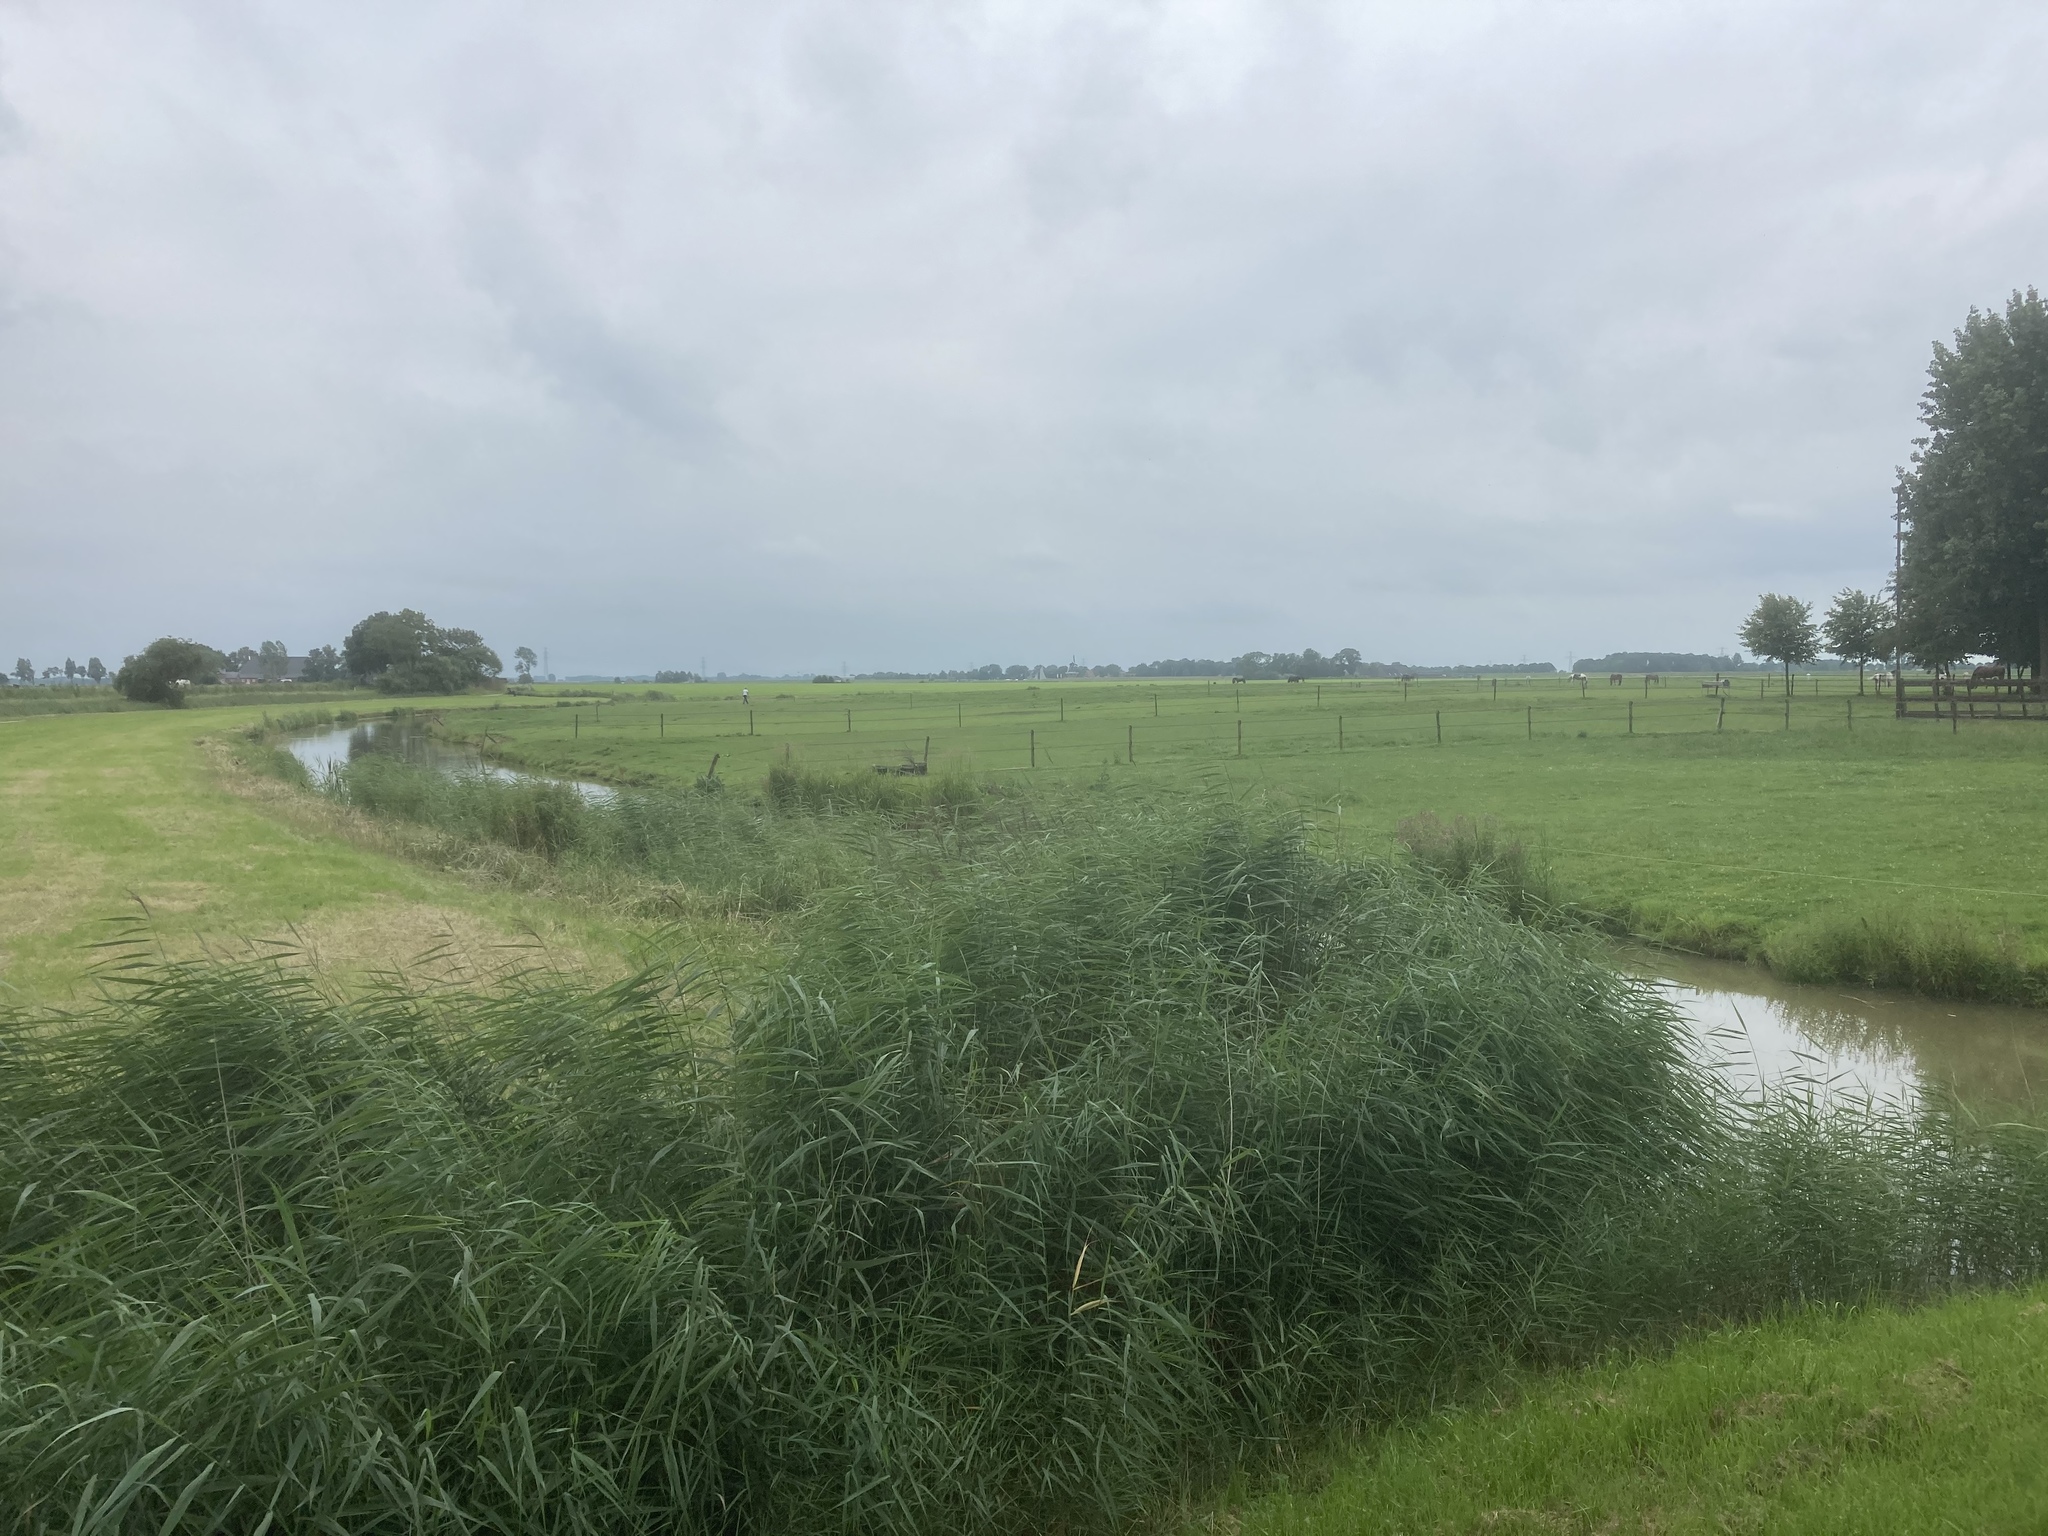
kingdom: Plantae
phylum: Tracheophyta
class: Liliopsida
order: Poales
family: Poaceae
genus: Phragmites
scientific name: Phragmites australis
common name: Common reed
